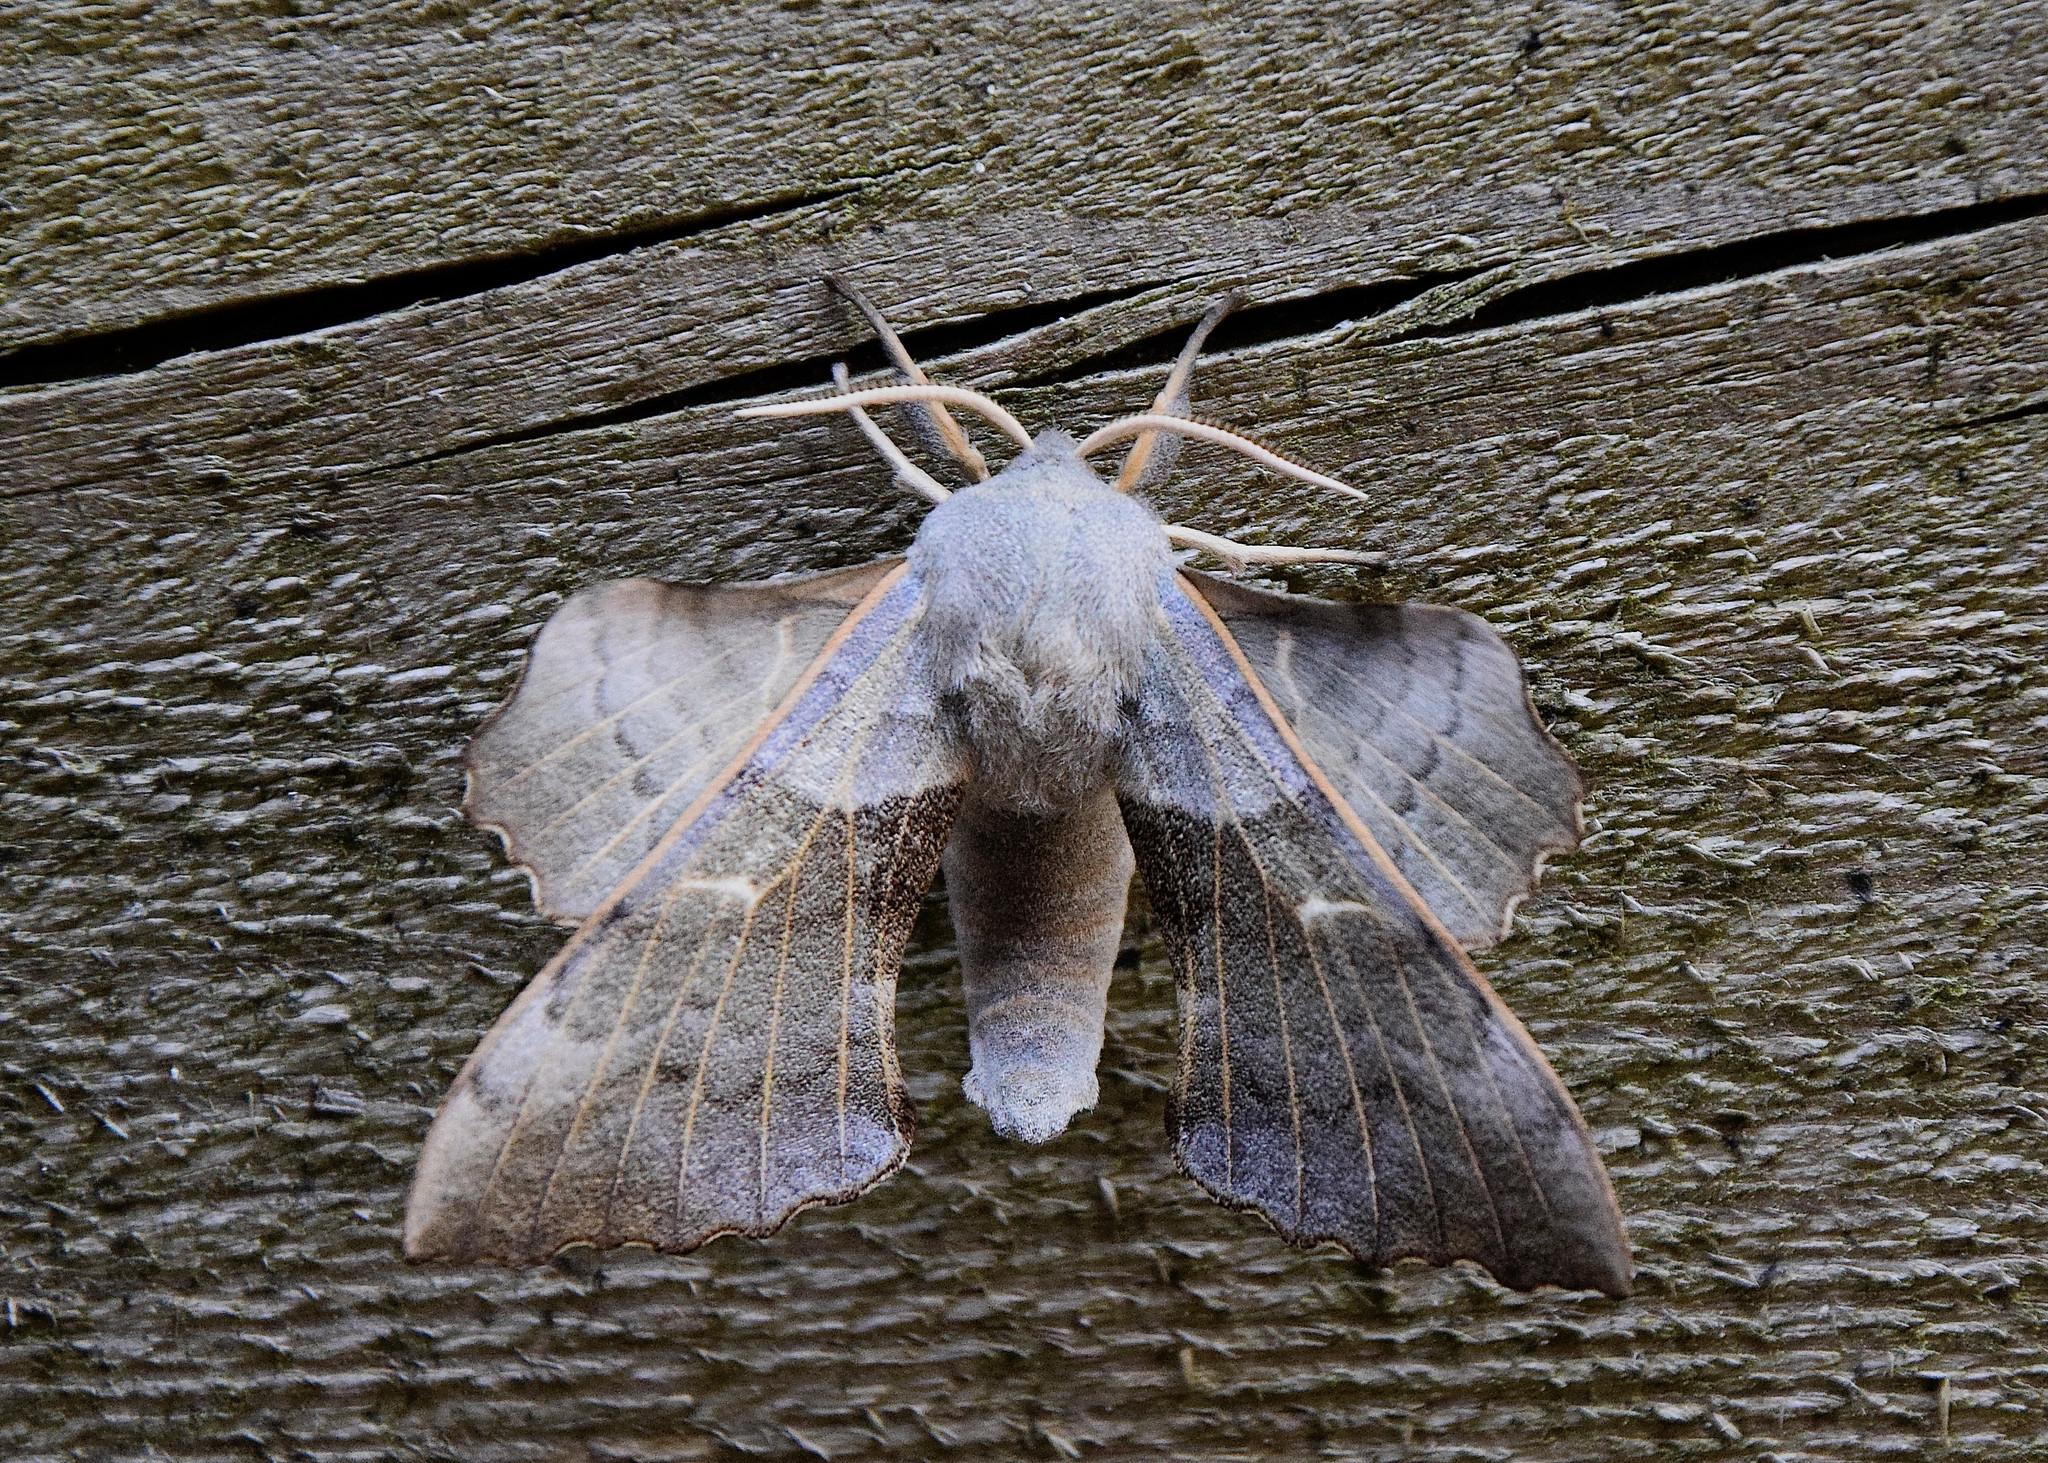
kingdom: Animalia
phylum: Arthropoda
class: Insecta
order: Lepidoptera
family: Sphingidae
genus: Laothoe
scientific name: Laothoe populi
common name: Poplar hawk-moth
